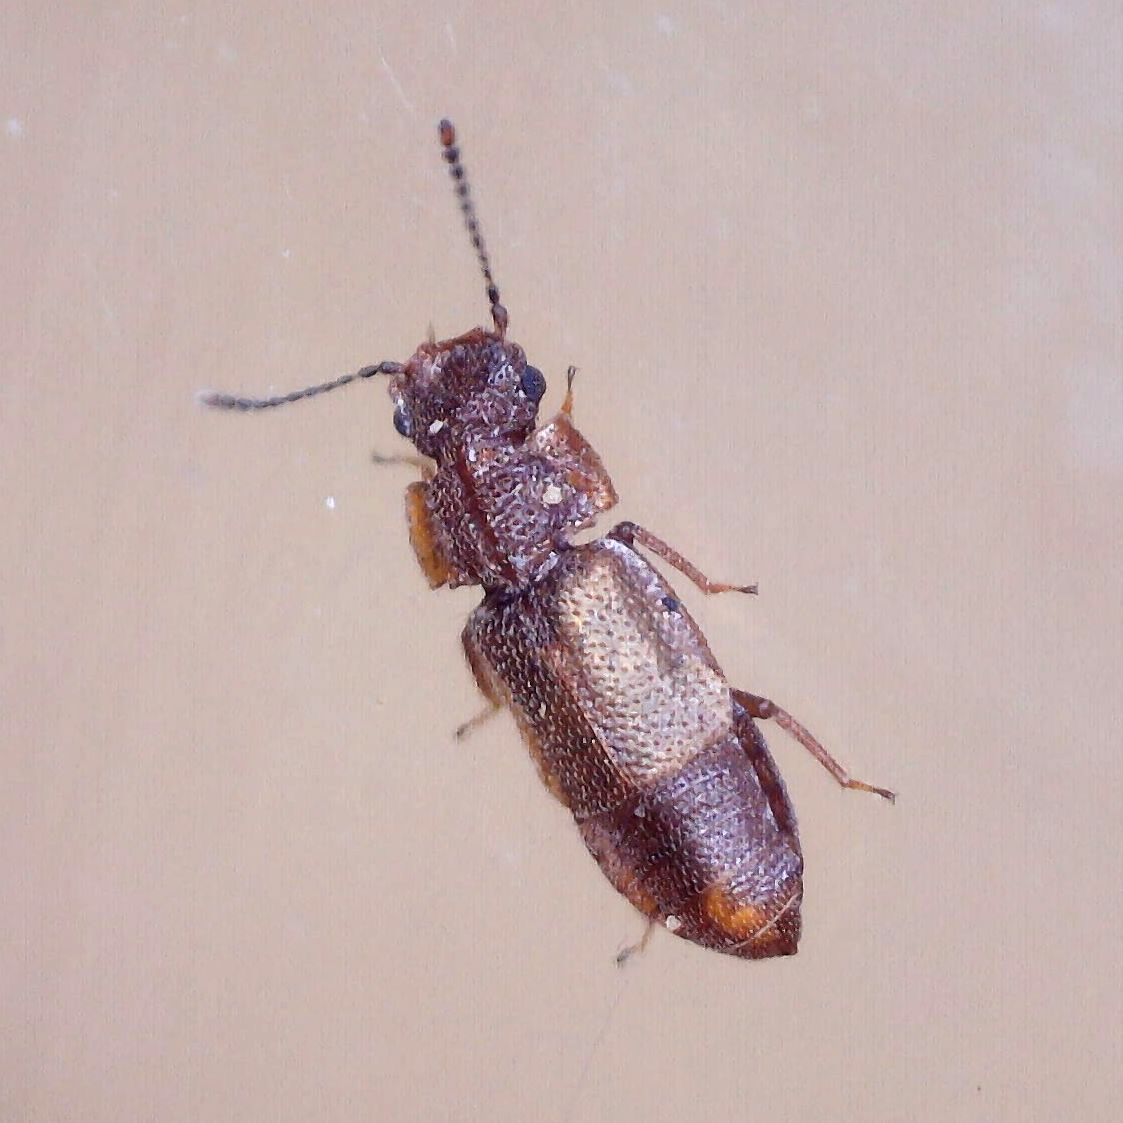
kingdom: Animalia
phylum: Arthropoda
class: Insecta
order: Coleoptera
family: Staphylinidae
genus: Metopsia
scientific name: Metopsia clypeata
